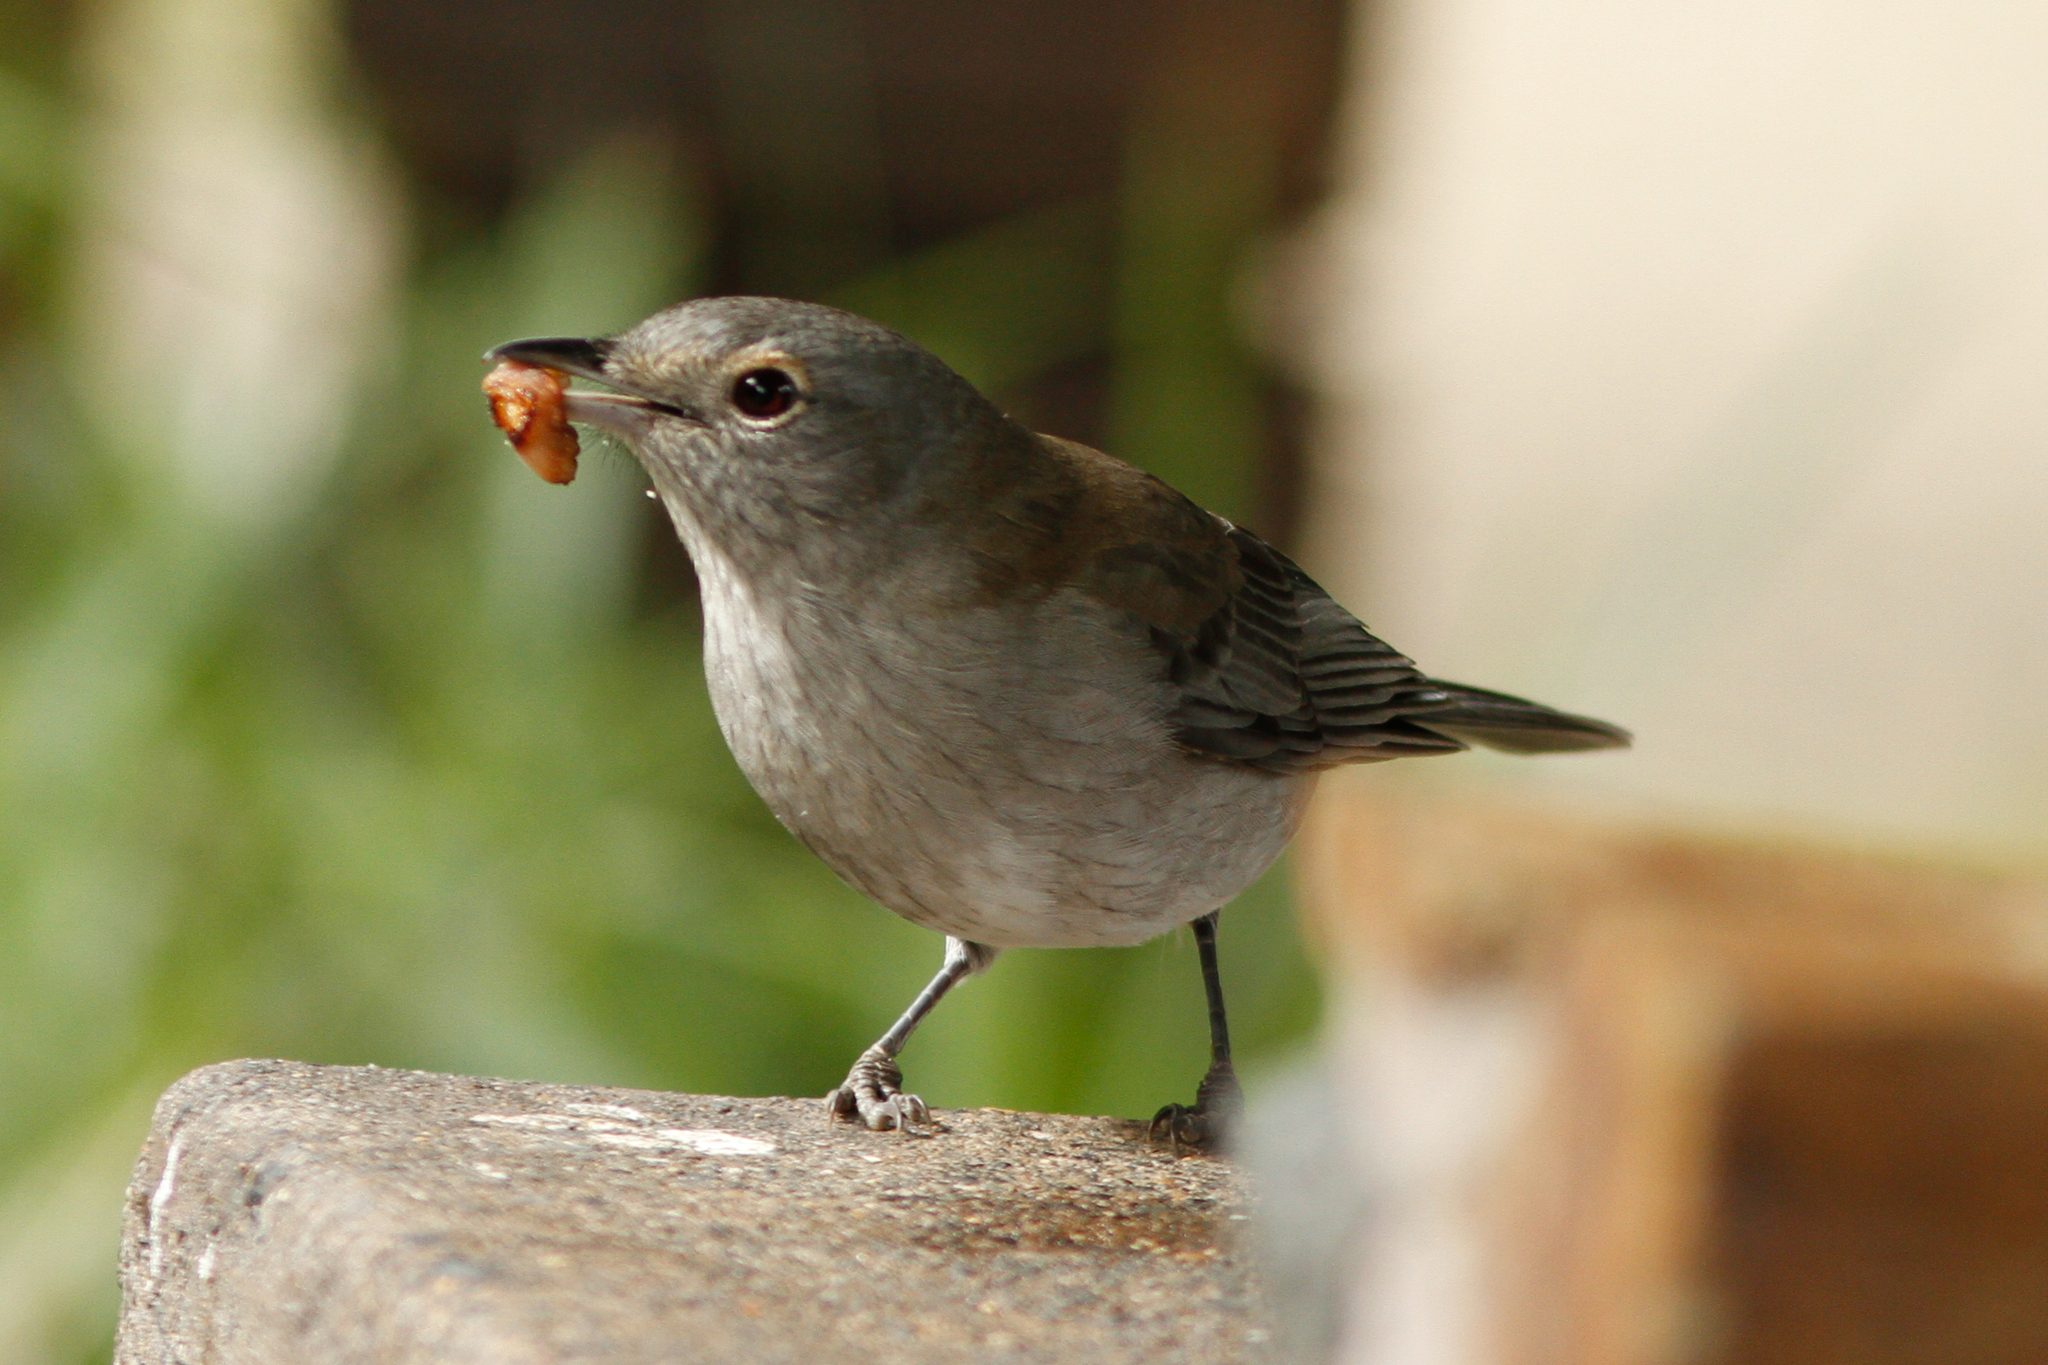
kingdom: Animalia
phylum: Chordata
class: Aves
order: Passeriformes
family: Pachycephalidae
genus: Colluricincla
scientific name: Colluricincla harmonica
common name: Grey shrikethrush
